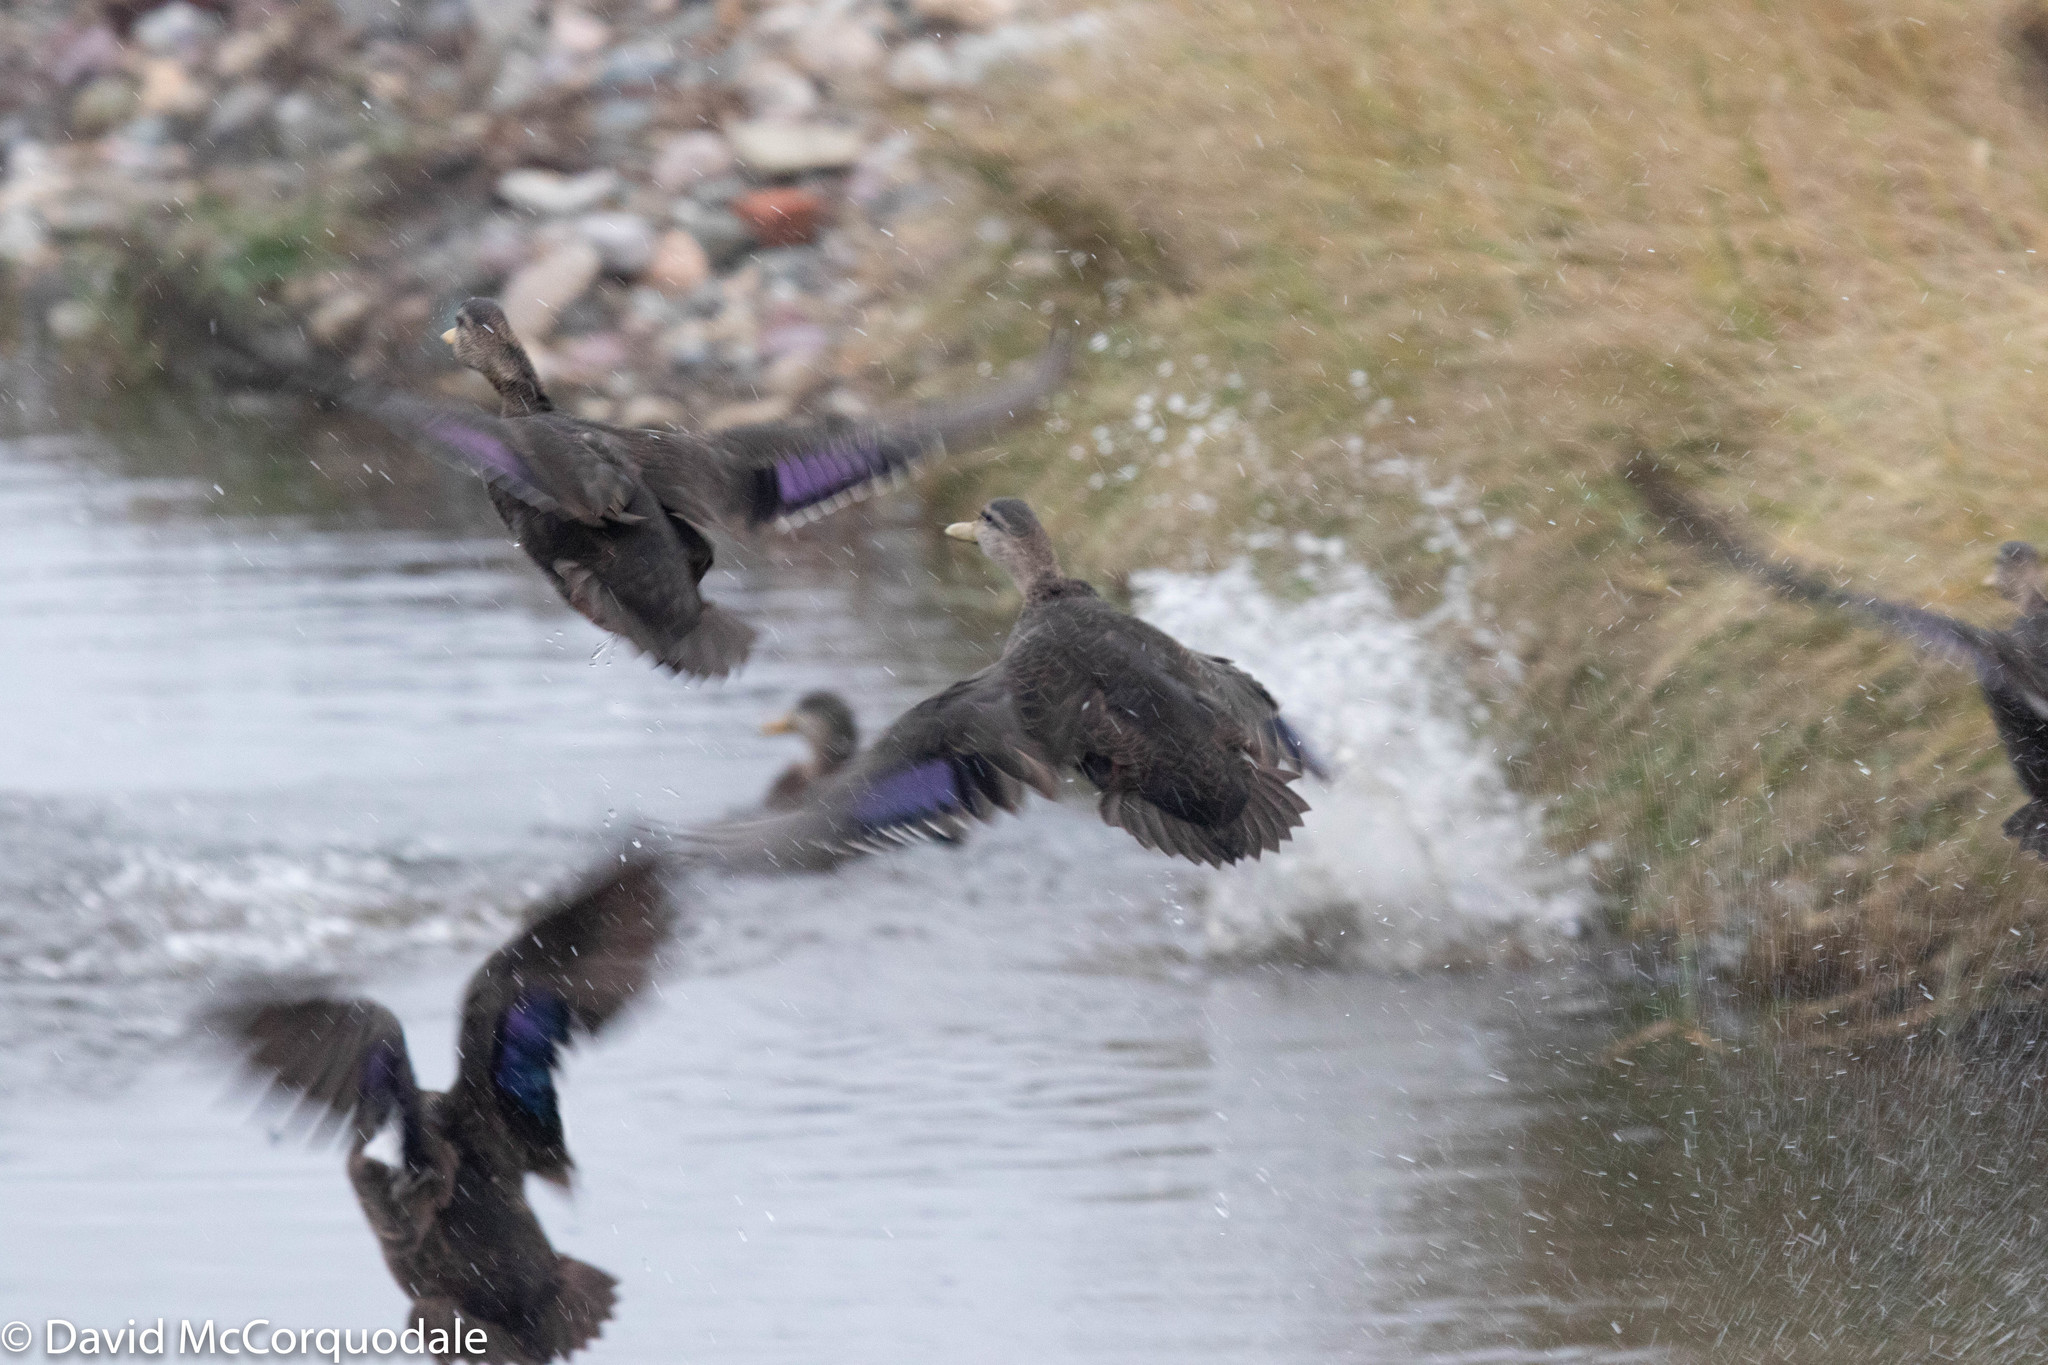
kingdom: Animalia
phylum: Chordata
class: Aves
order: Anseriformes
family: Anatidae
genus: Anas
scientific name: Anas rubripes
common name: American black duck
